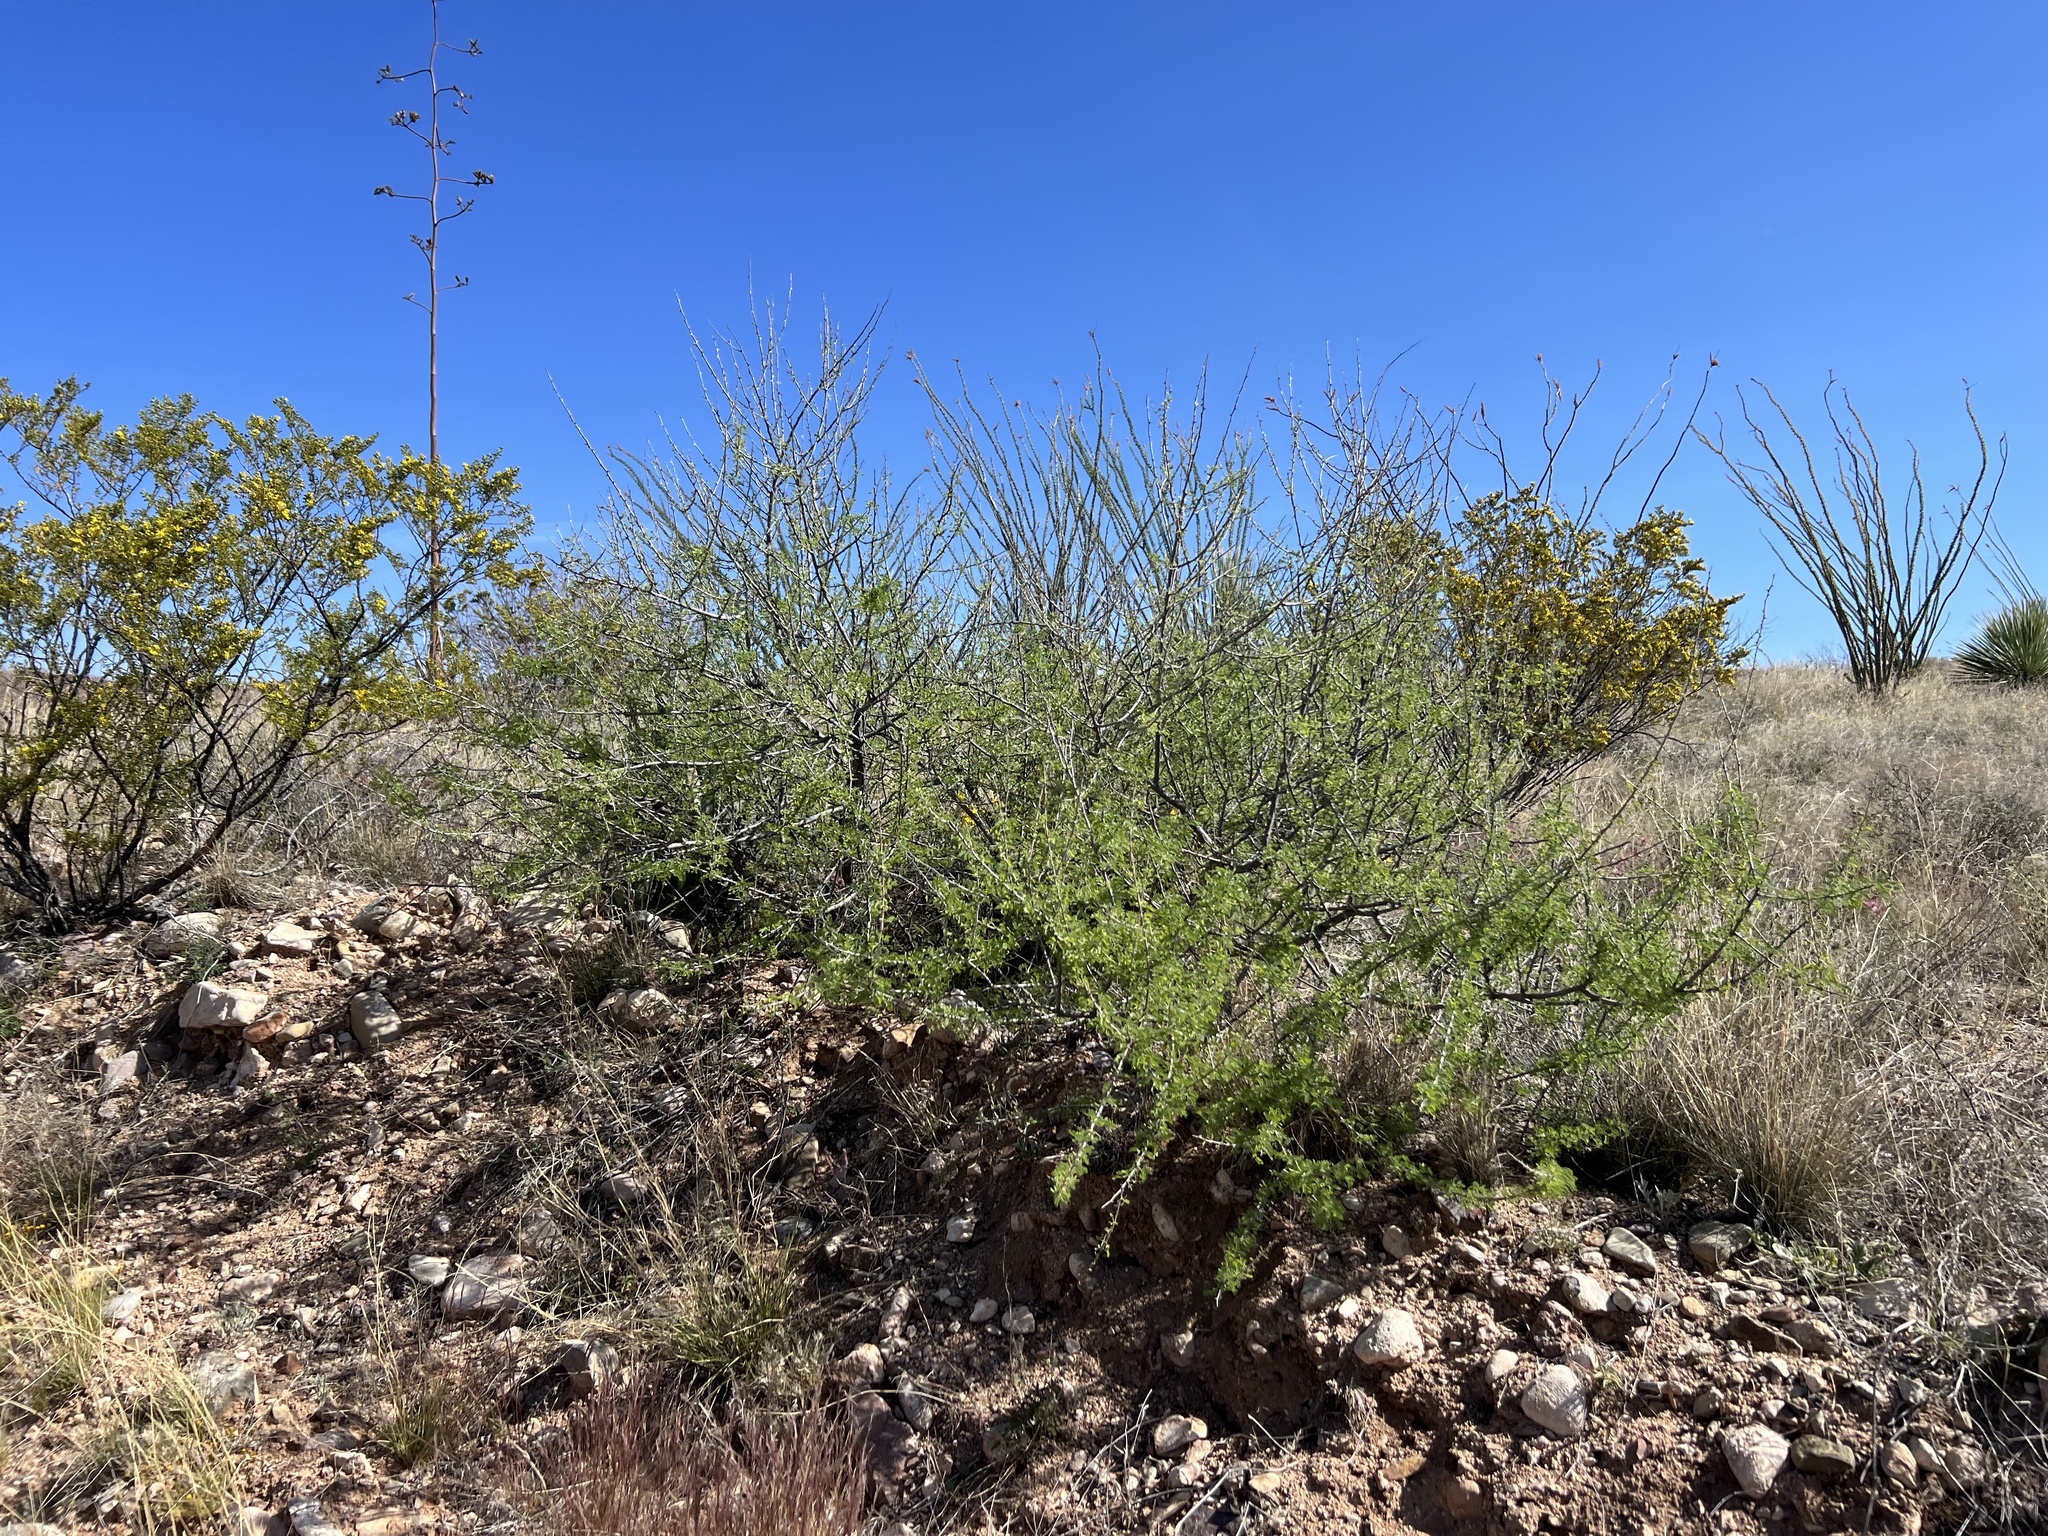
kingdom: Plantae
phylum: Tracheophyta
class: Magnoliopsida
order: Fabales
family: Fabaceae
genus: Senegalia
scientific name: Senegalia greggii
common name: Texas-mimosa
